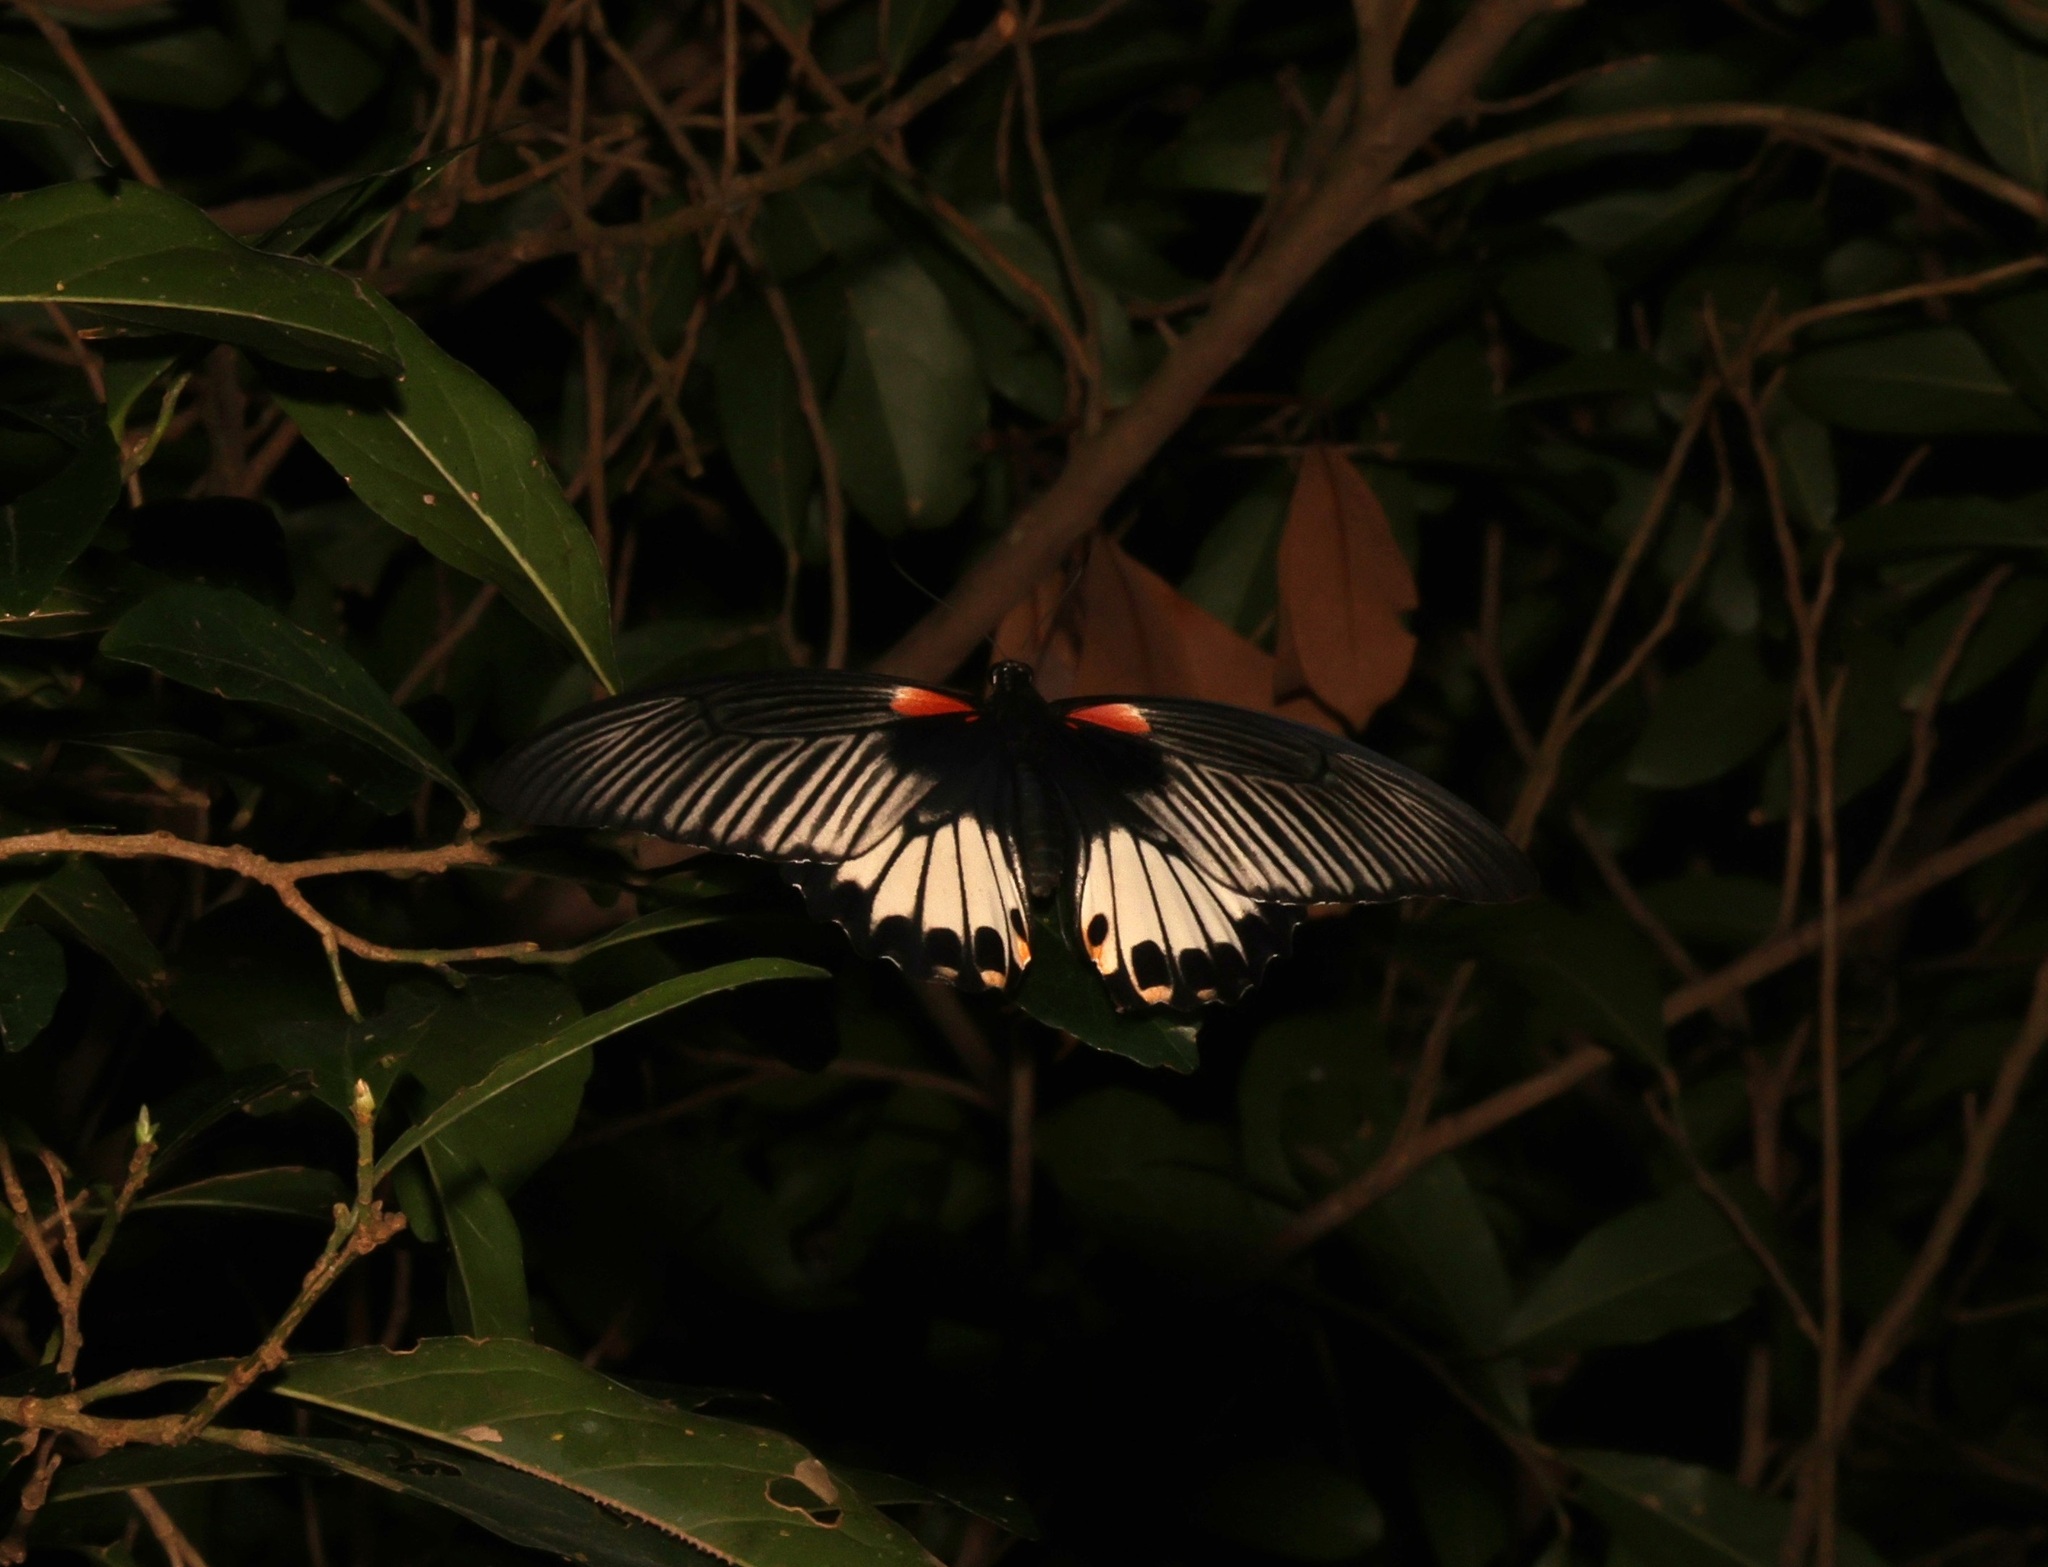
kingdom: Animalia
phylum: Arthropoda
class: Insecta
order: Lepidoptera
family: Papilionidae
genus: Papilio
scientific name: Papilio memnon
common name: Great mormon
